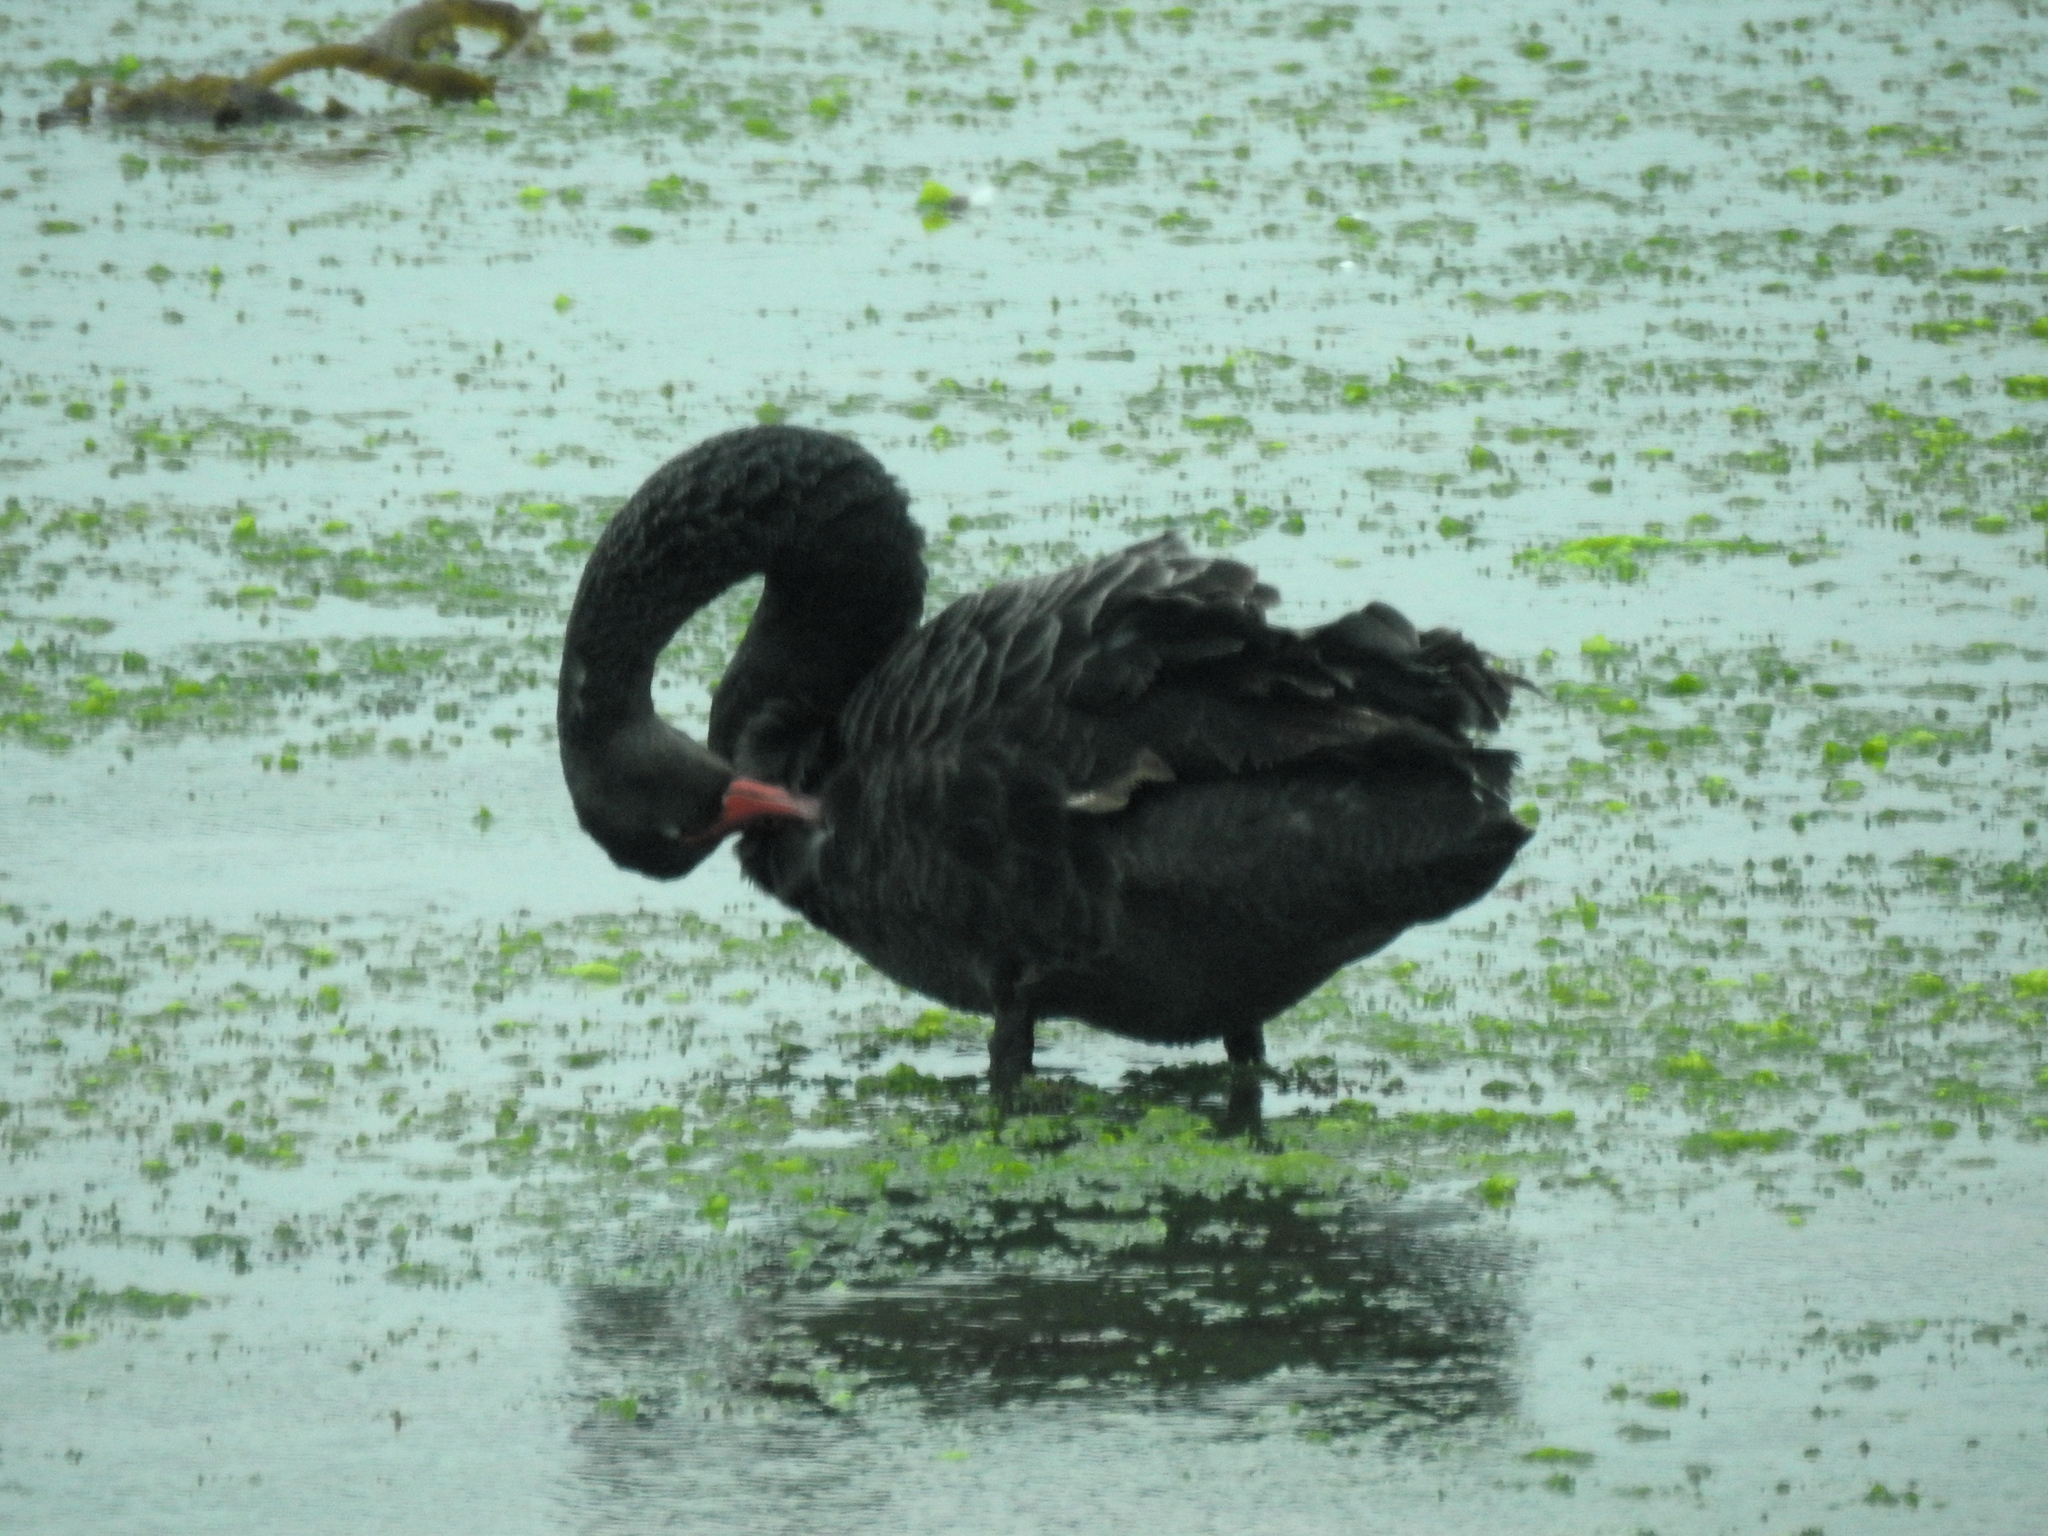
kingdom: Animalia
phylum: Chordata
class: Aves
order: Anseriformes
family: Anatidae
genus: Cygnus
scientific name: Cygnus atratus
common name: Black swan
